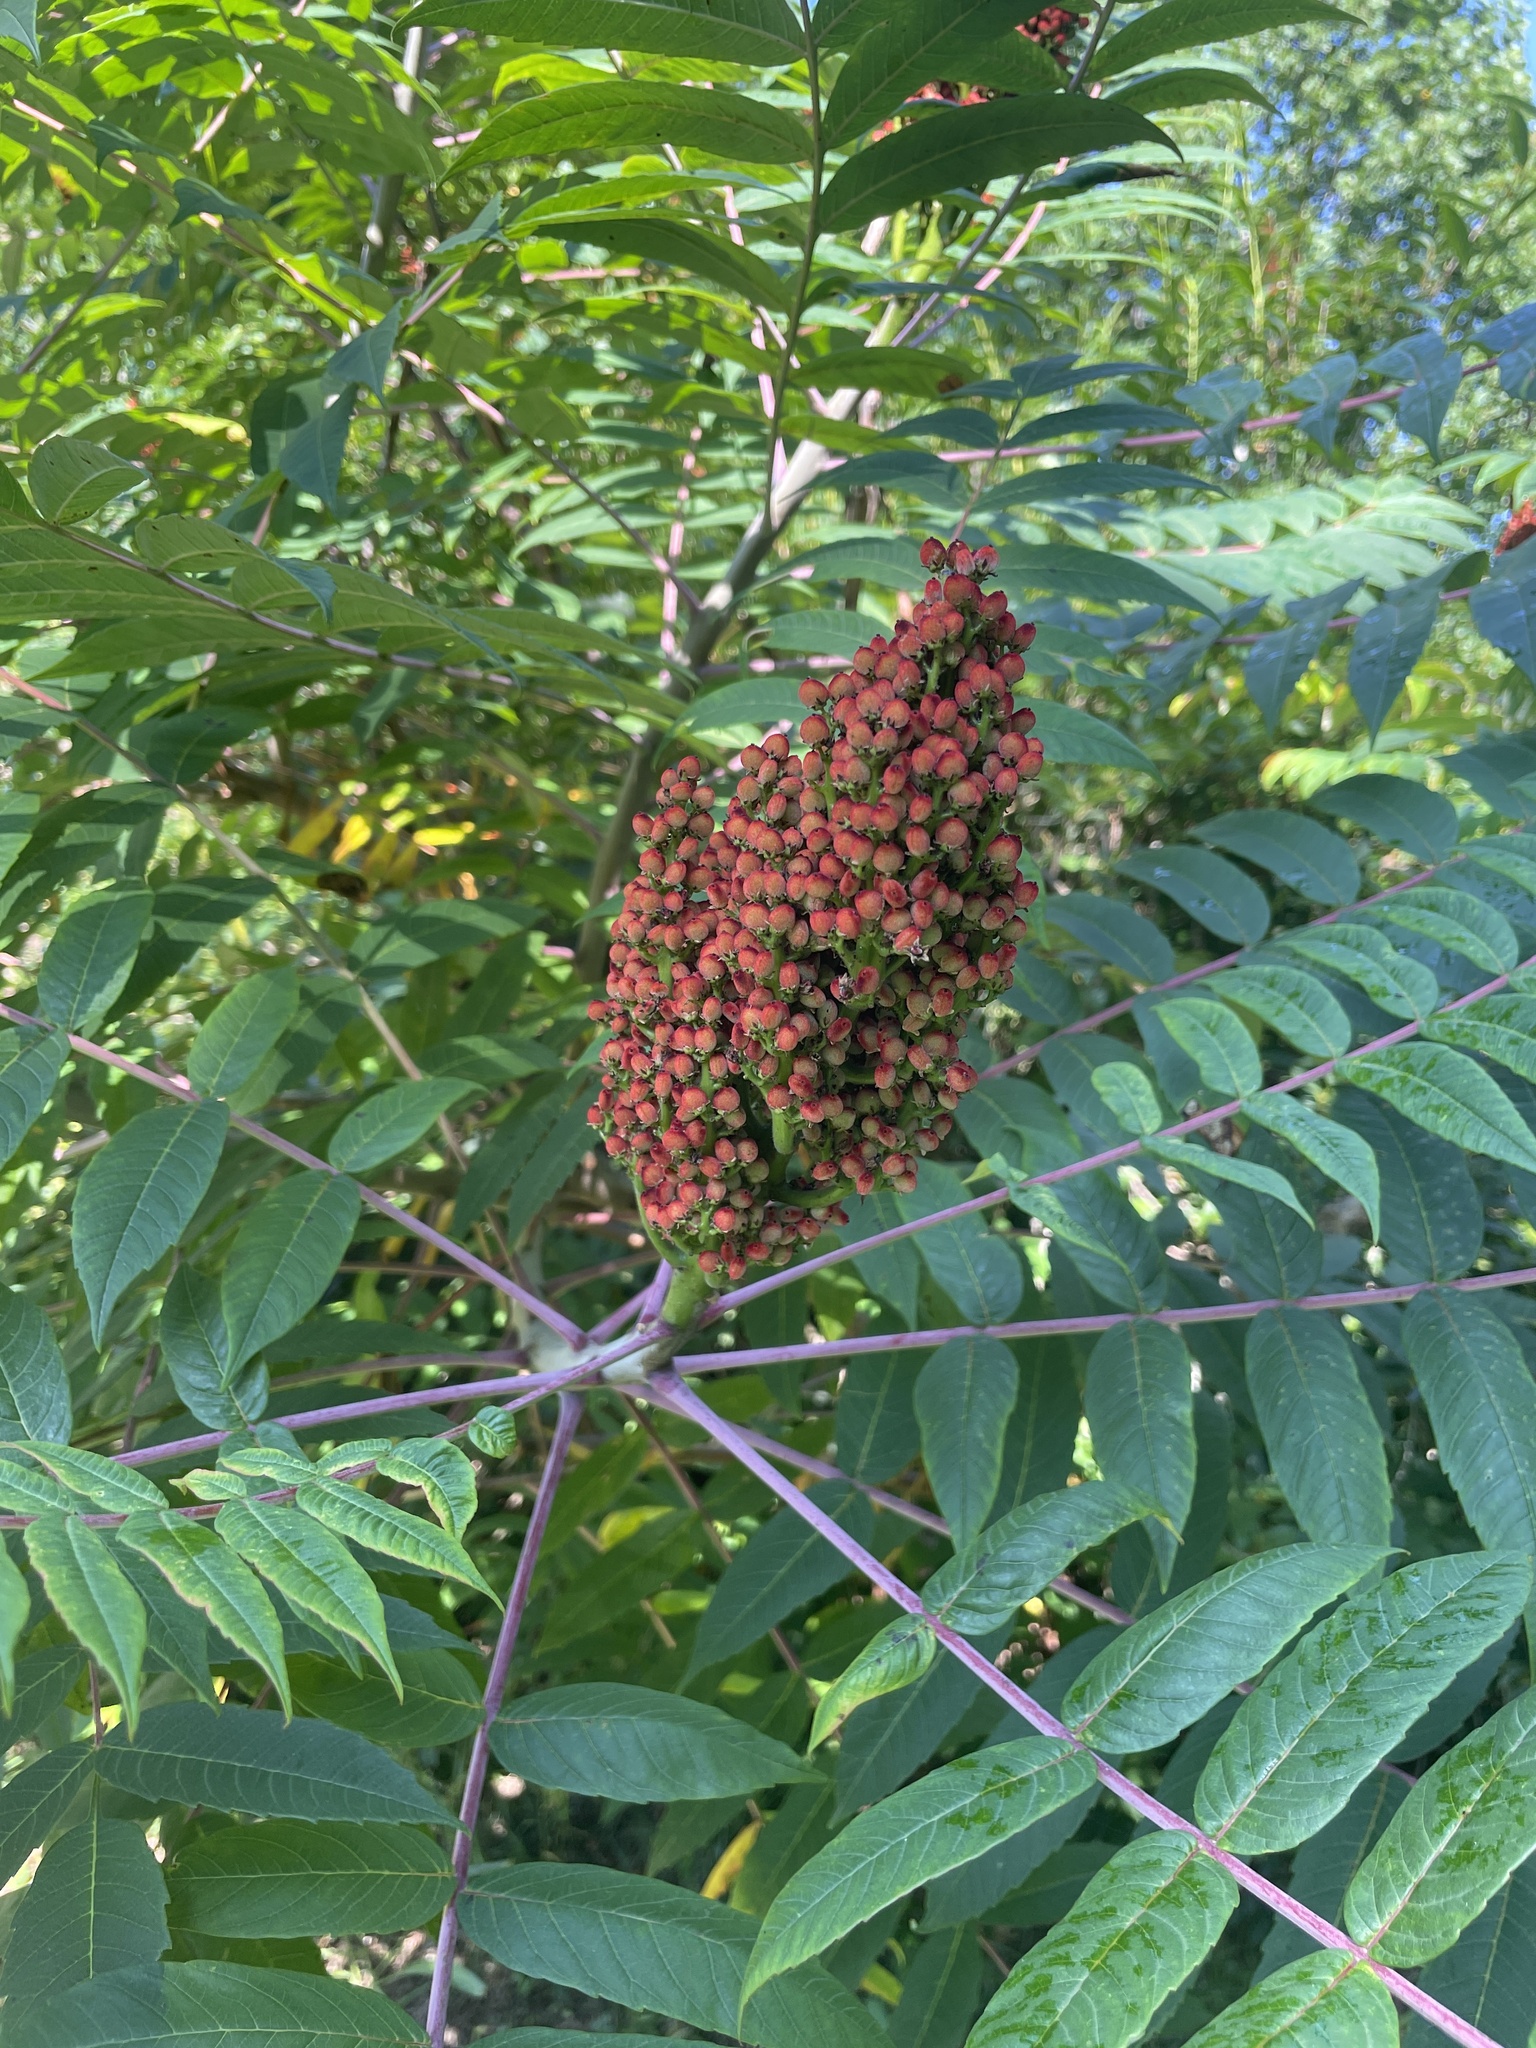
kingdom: Plantae
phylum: Tracheophyta
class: Magnoliopsida
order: Sapindales
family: Anacardiaceae
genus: Rhus
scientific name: Rhus glabra
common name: Scarlet sumac
